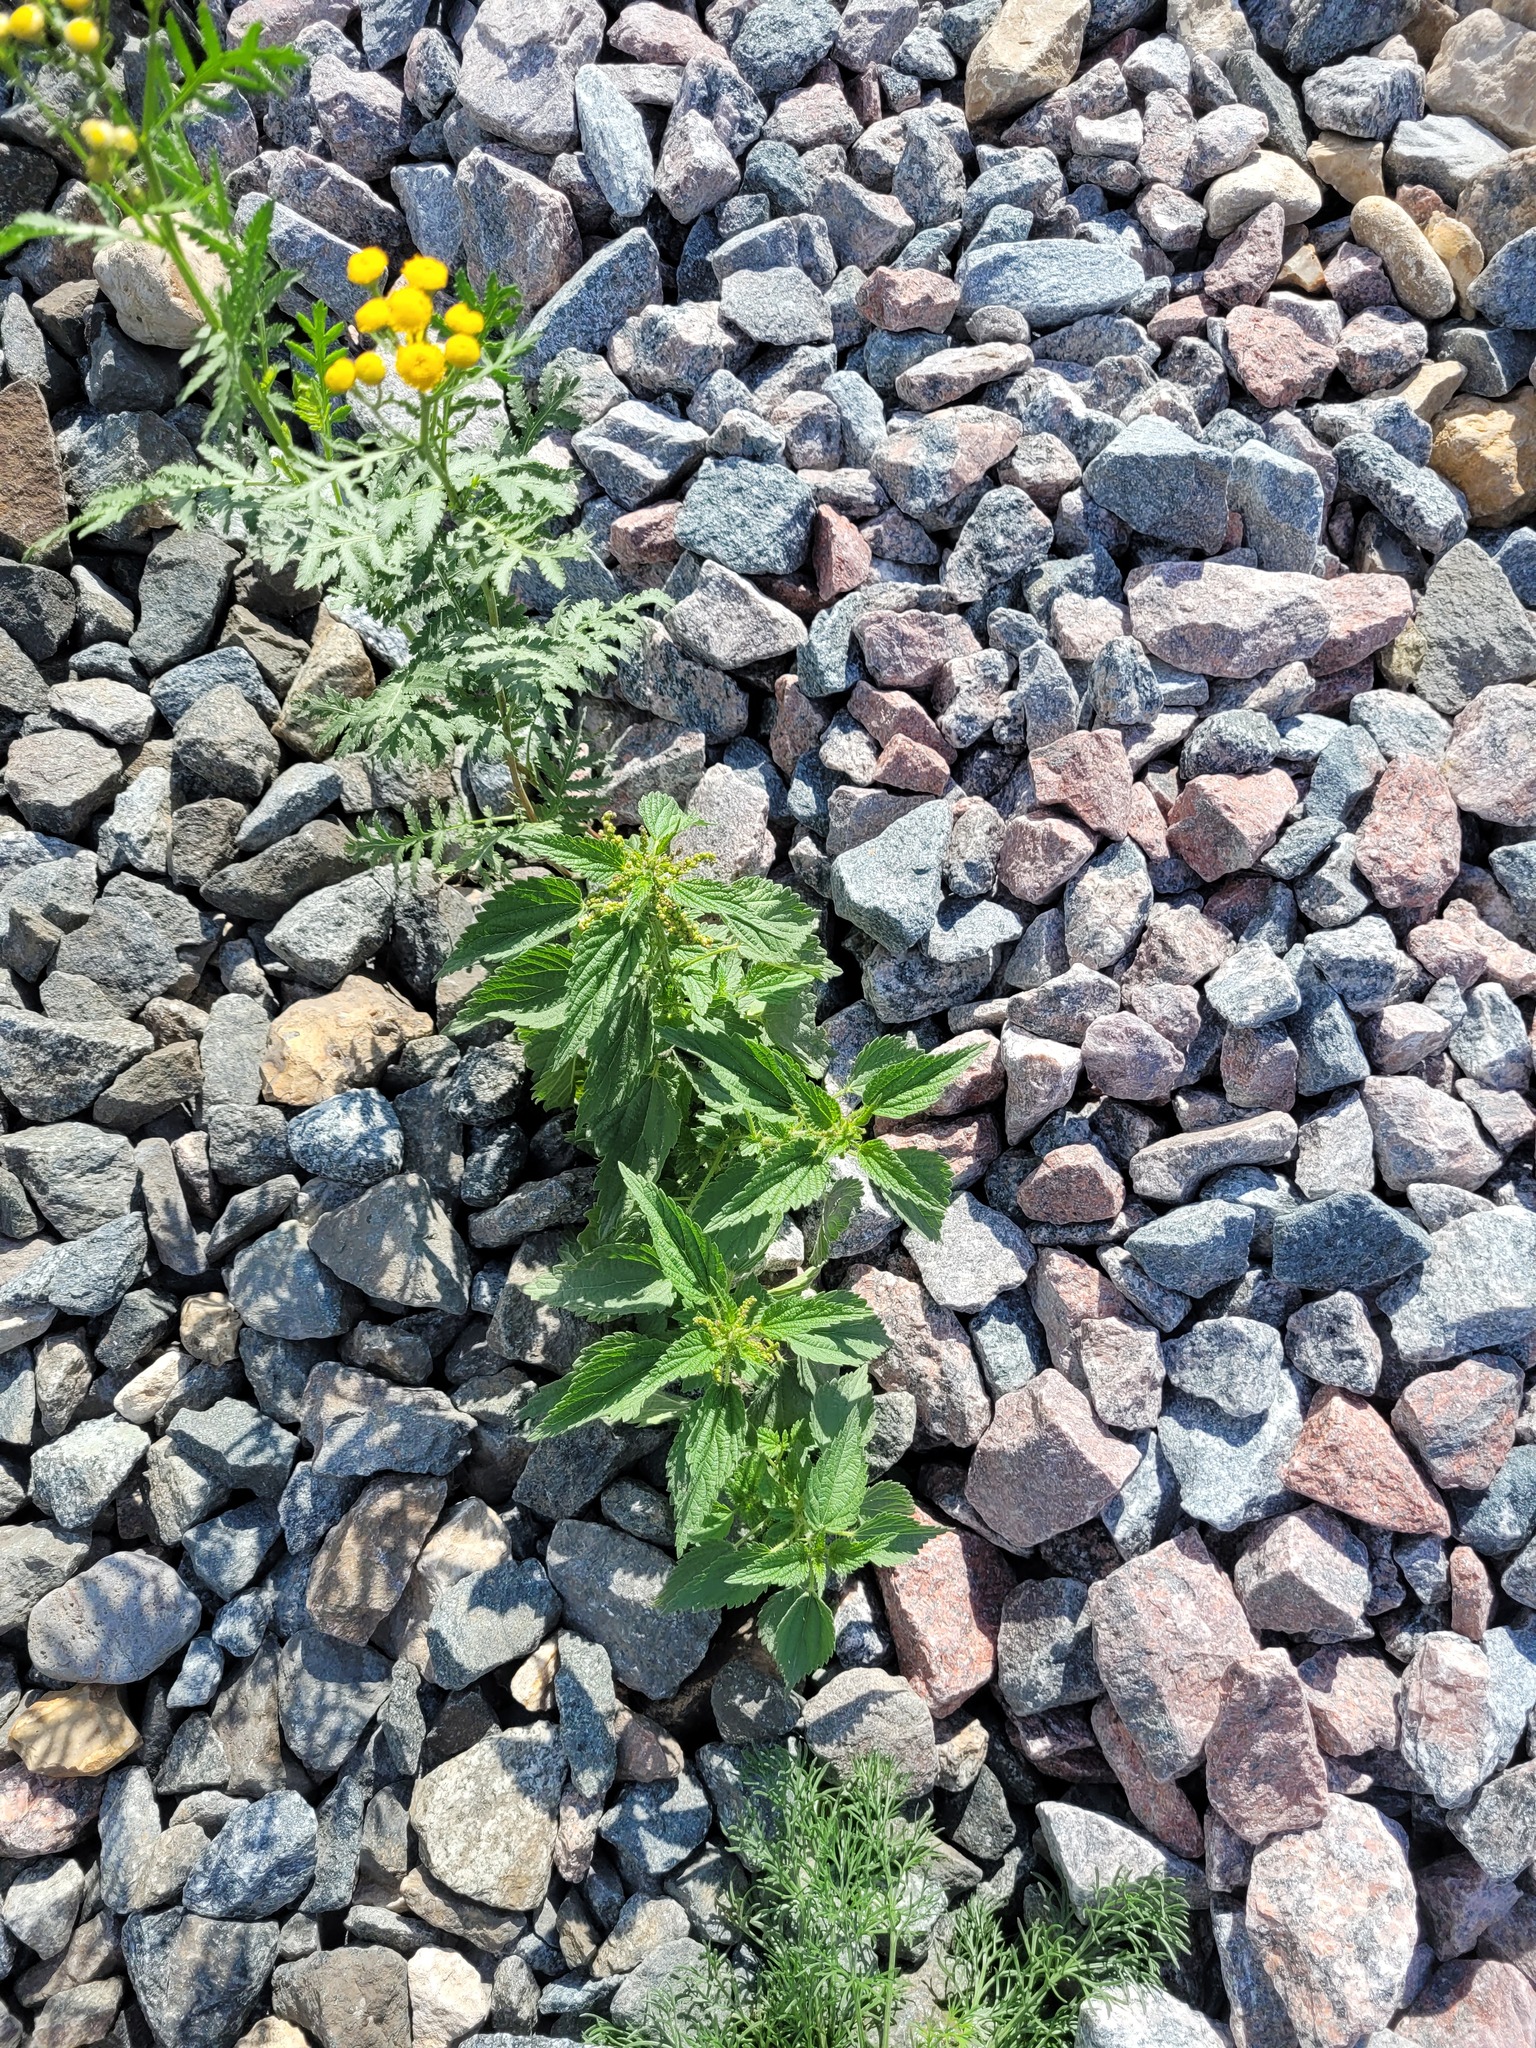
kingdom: Plantae
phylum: Tracheophyta
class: Magnoliopsida
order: Rosales
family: Urticaceae
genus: Urtica
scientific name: Urtica dioica
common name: Common nettle
